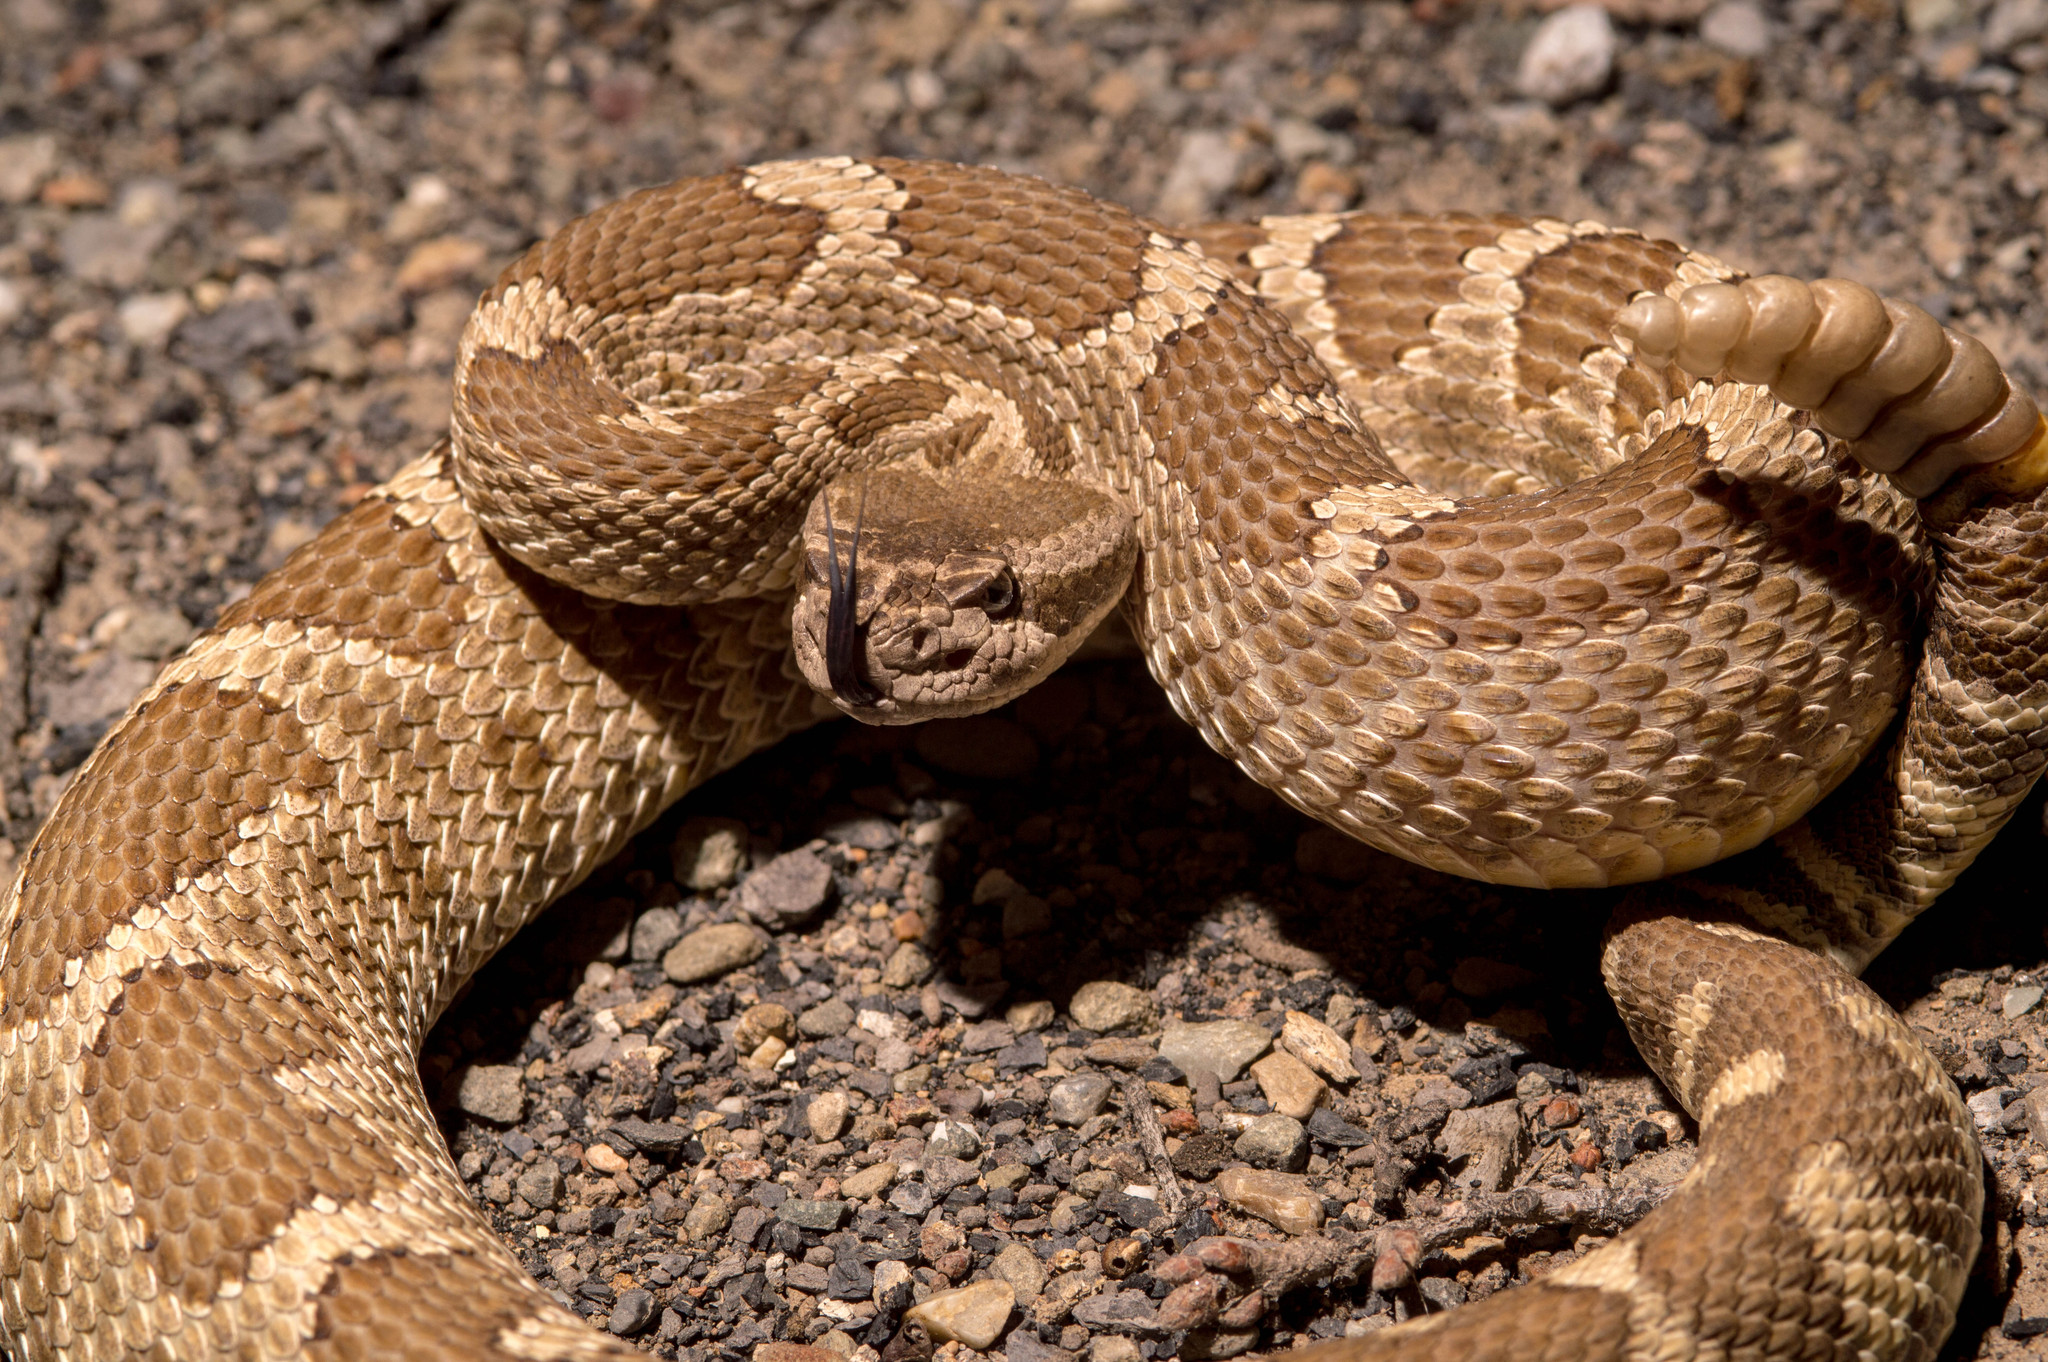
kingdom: Animalia
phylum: Chordata
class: Squamata
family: Viperidae
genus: Crotalus
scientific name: Crotalus oreganus
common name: Abyssus
